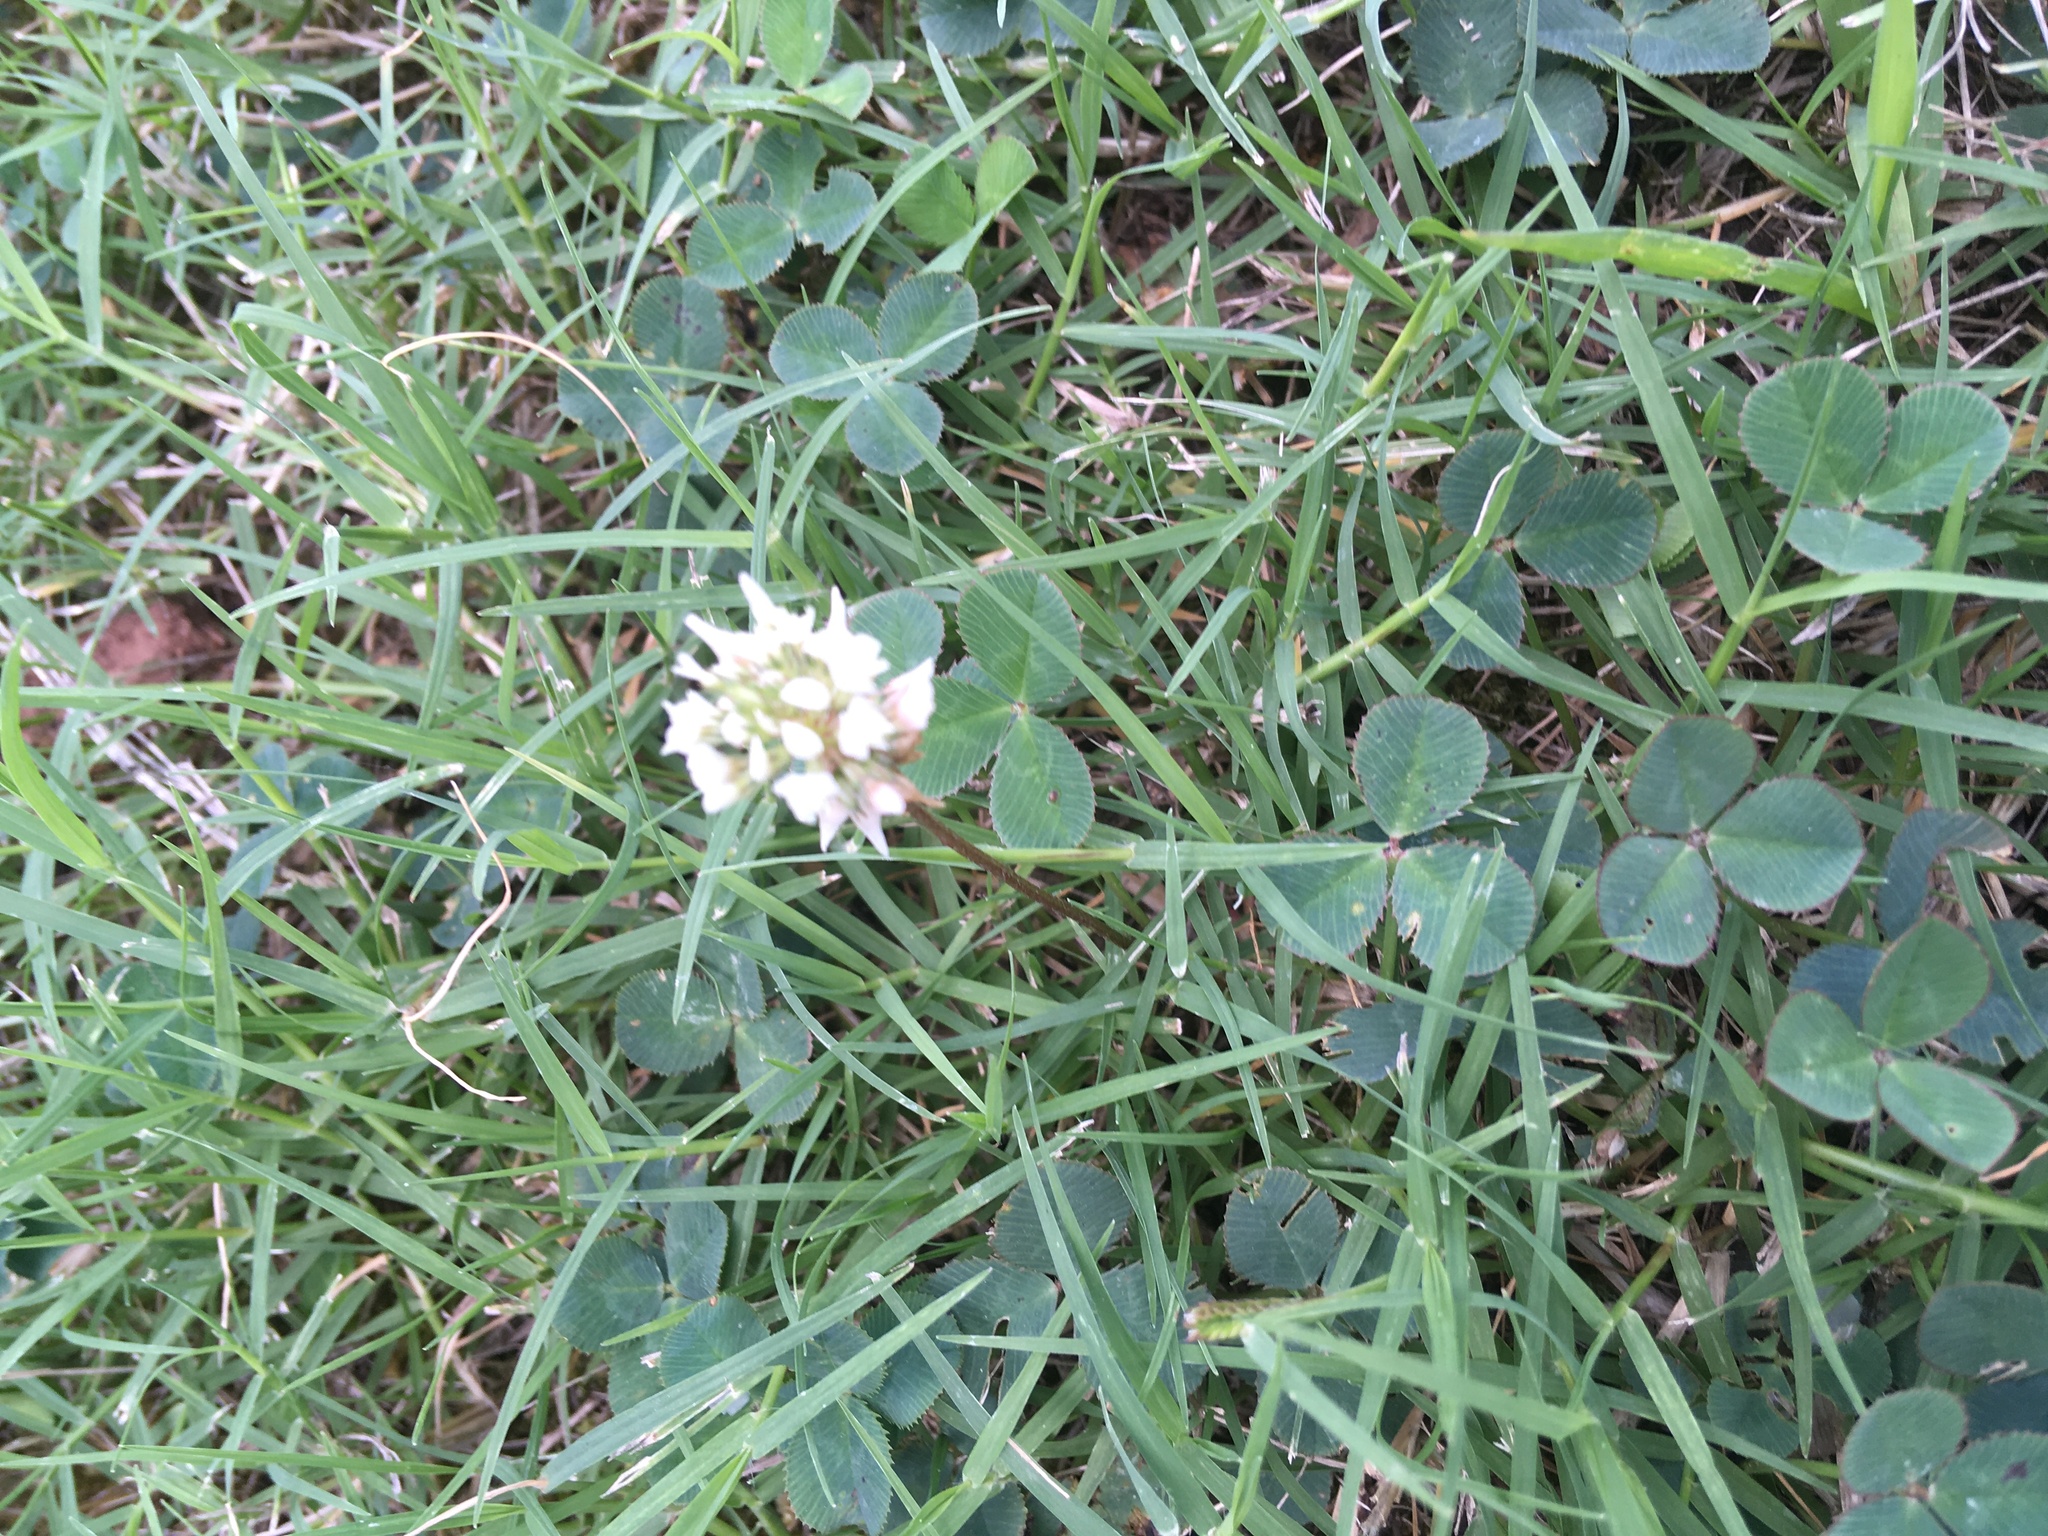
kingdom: Plantae
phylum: Tracheophyta
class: Magnoliopsida
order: Fabales
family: Fabaceae
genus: Trifolium
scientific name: Trifolium repens
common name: White clover
